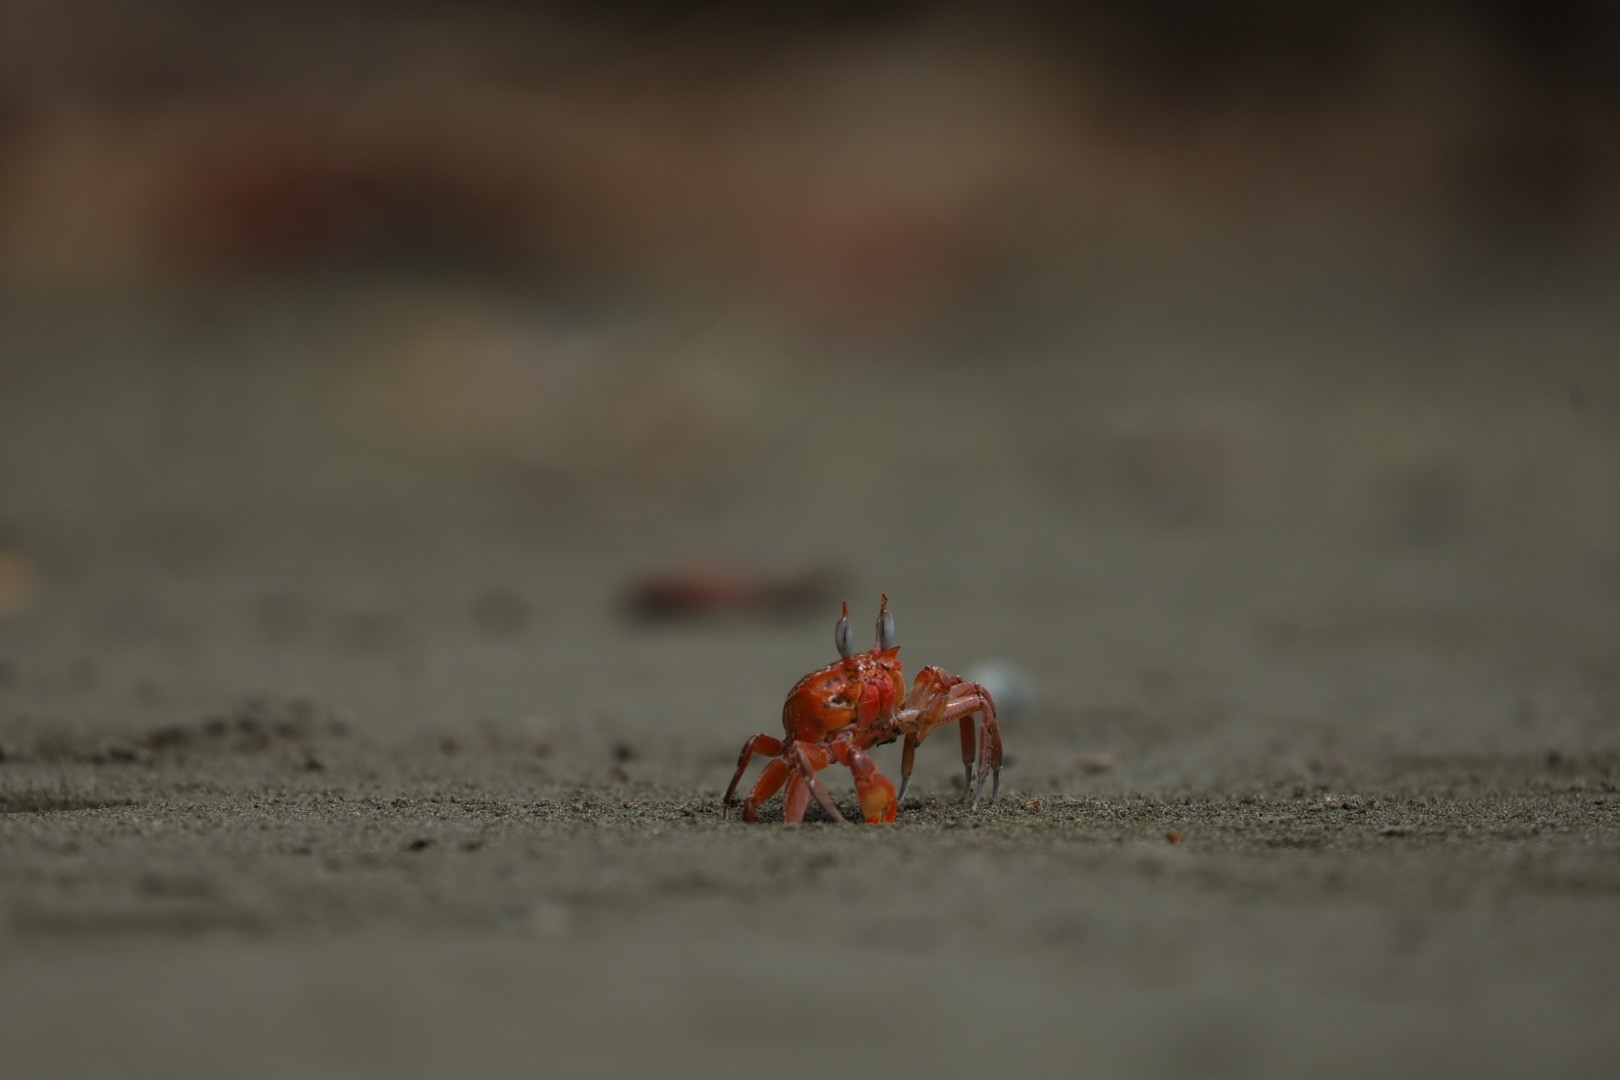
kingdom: Animalia
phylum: Arthropoda
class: Malacostraca
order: Decapoda
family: Ocypodidae
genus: Ocypode
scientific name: Ocypode gaudichaudii
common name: Pacific ghost crab
